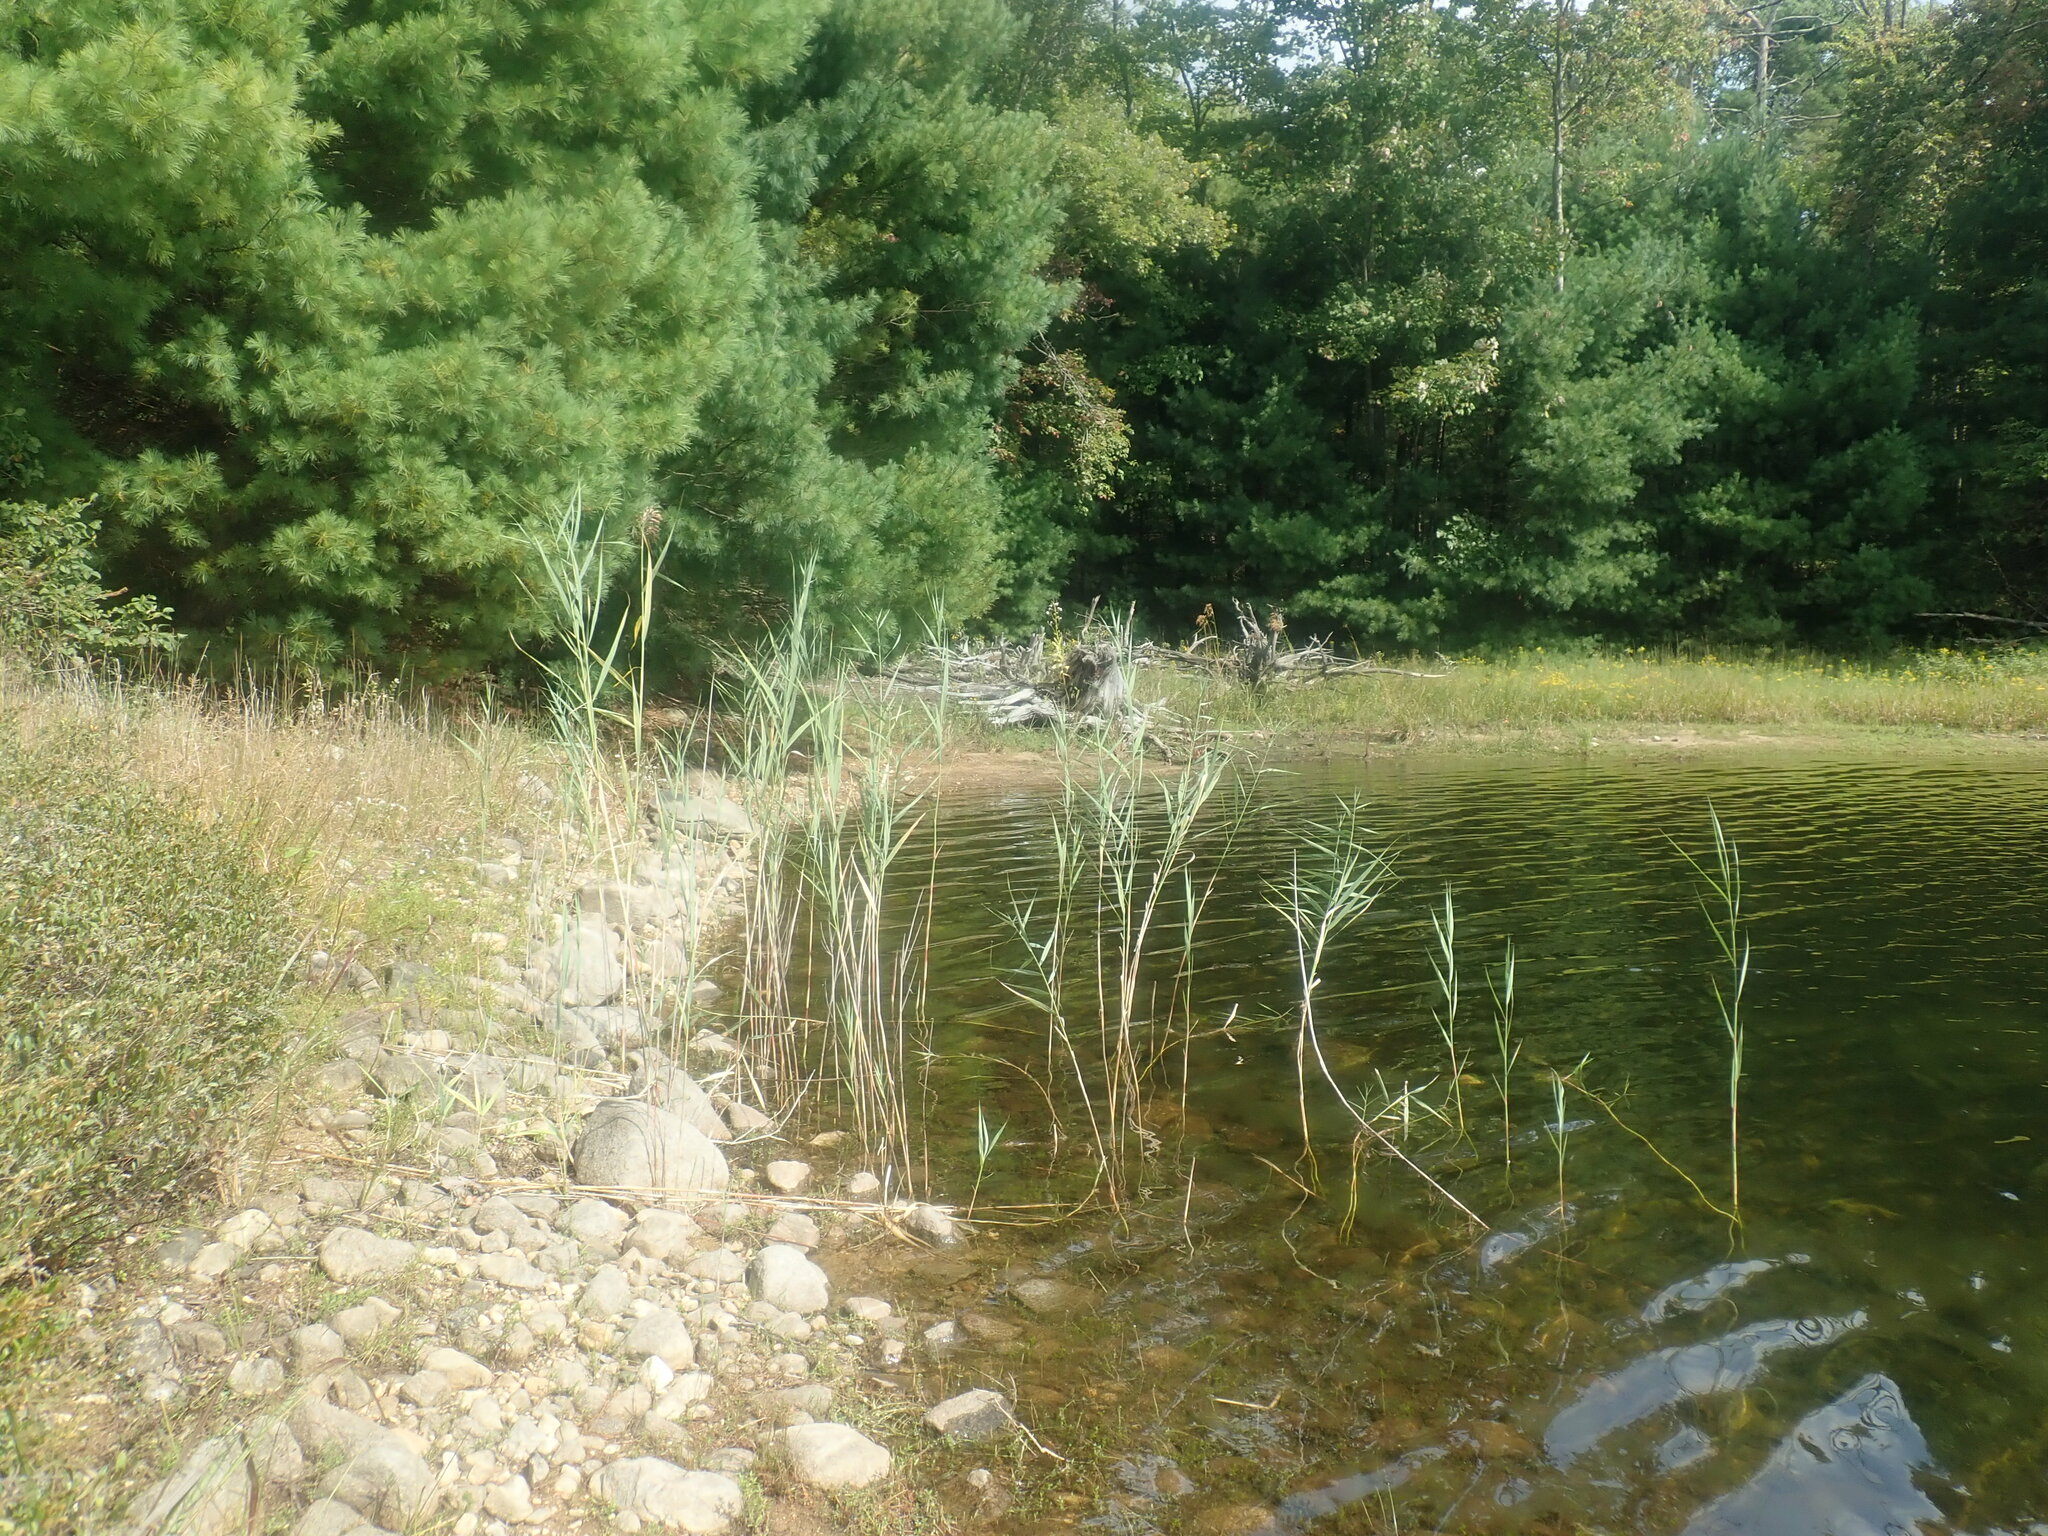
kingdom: Plantae
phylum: Tracheophyta
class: Liliopsida
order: Poales
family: Poaceae
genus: Phragmites
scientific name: Phragmites australis
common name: Common reed
